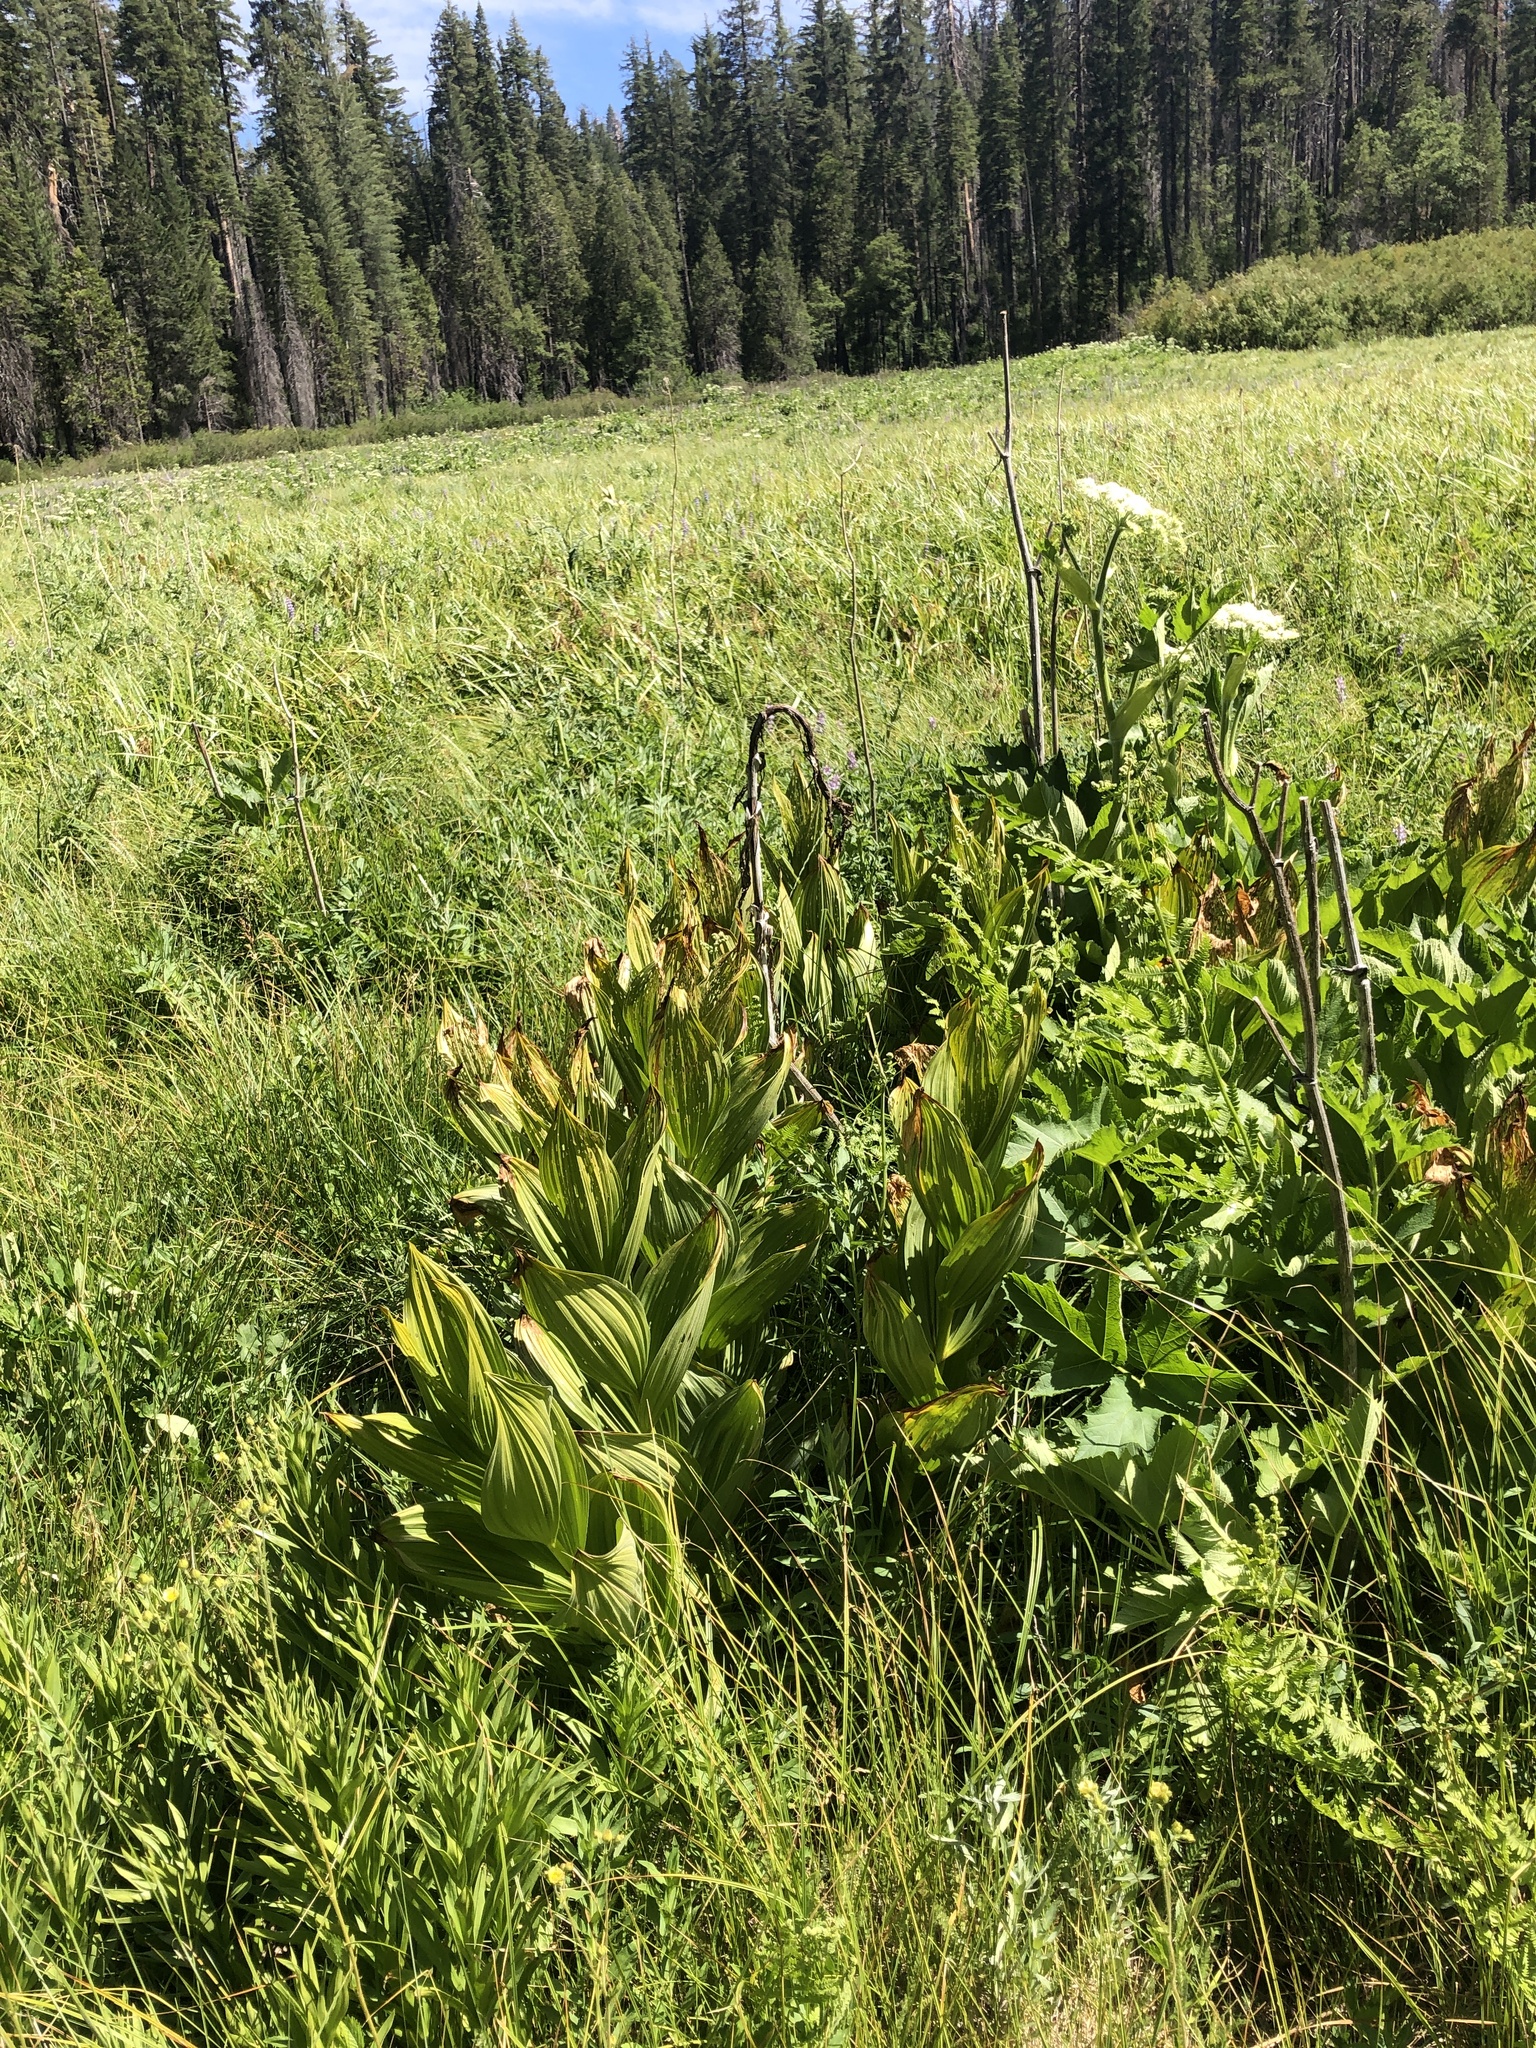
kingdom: Plantae
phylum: Tracheophyta
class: Liliopsida
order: Liliales
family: Melanthiaceae
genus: Veratrum
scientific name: Veratrum californicum
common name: California veratrum
